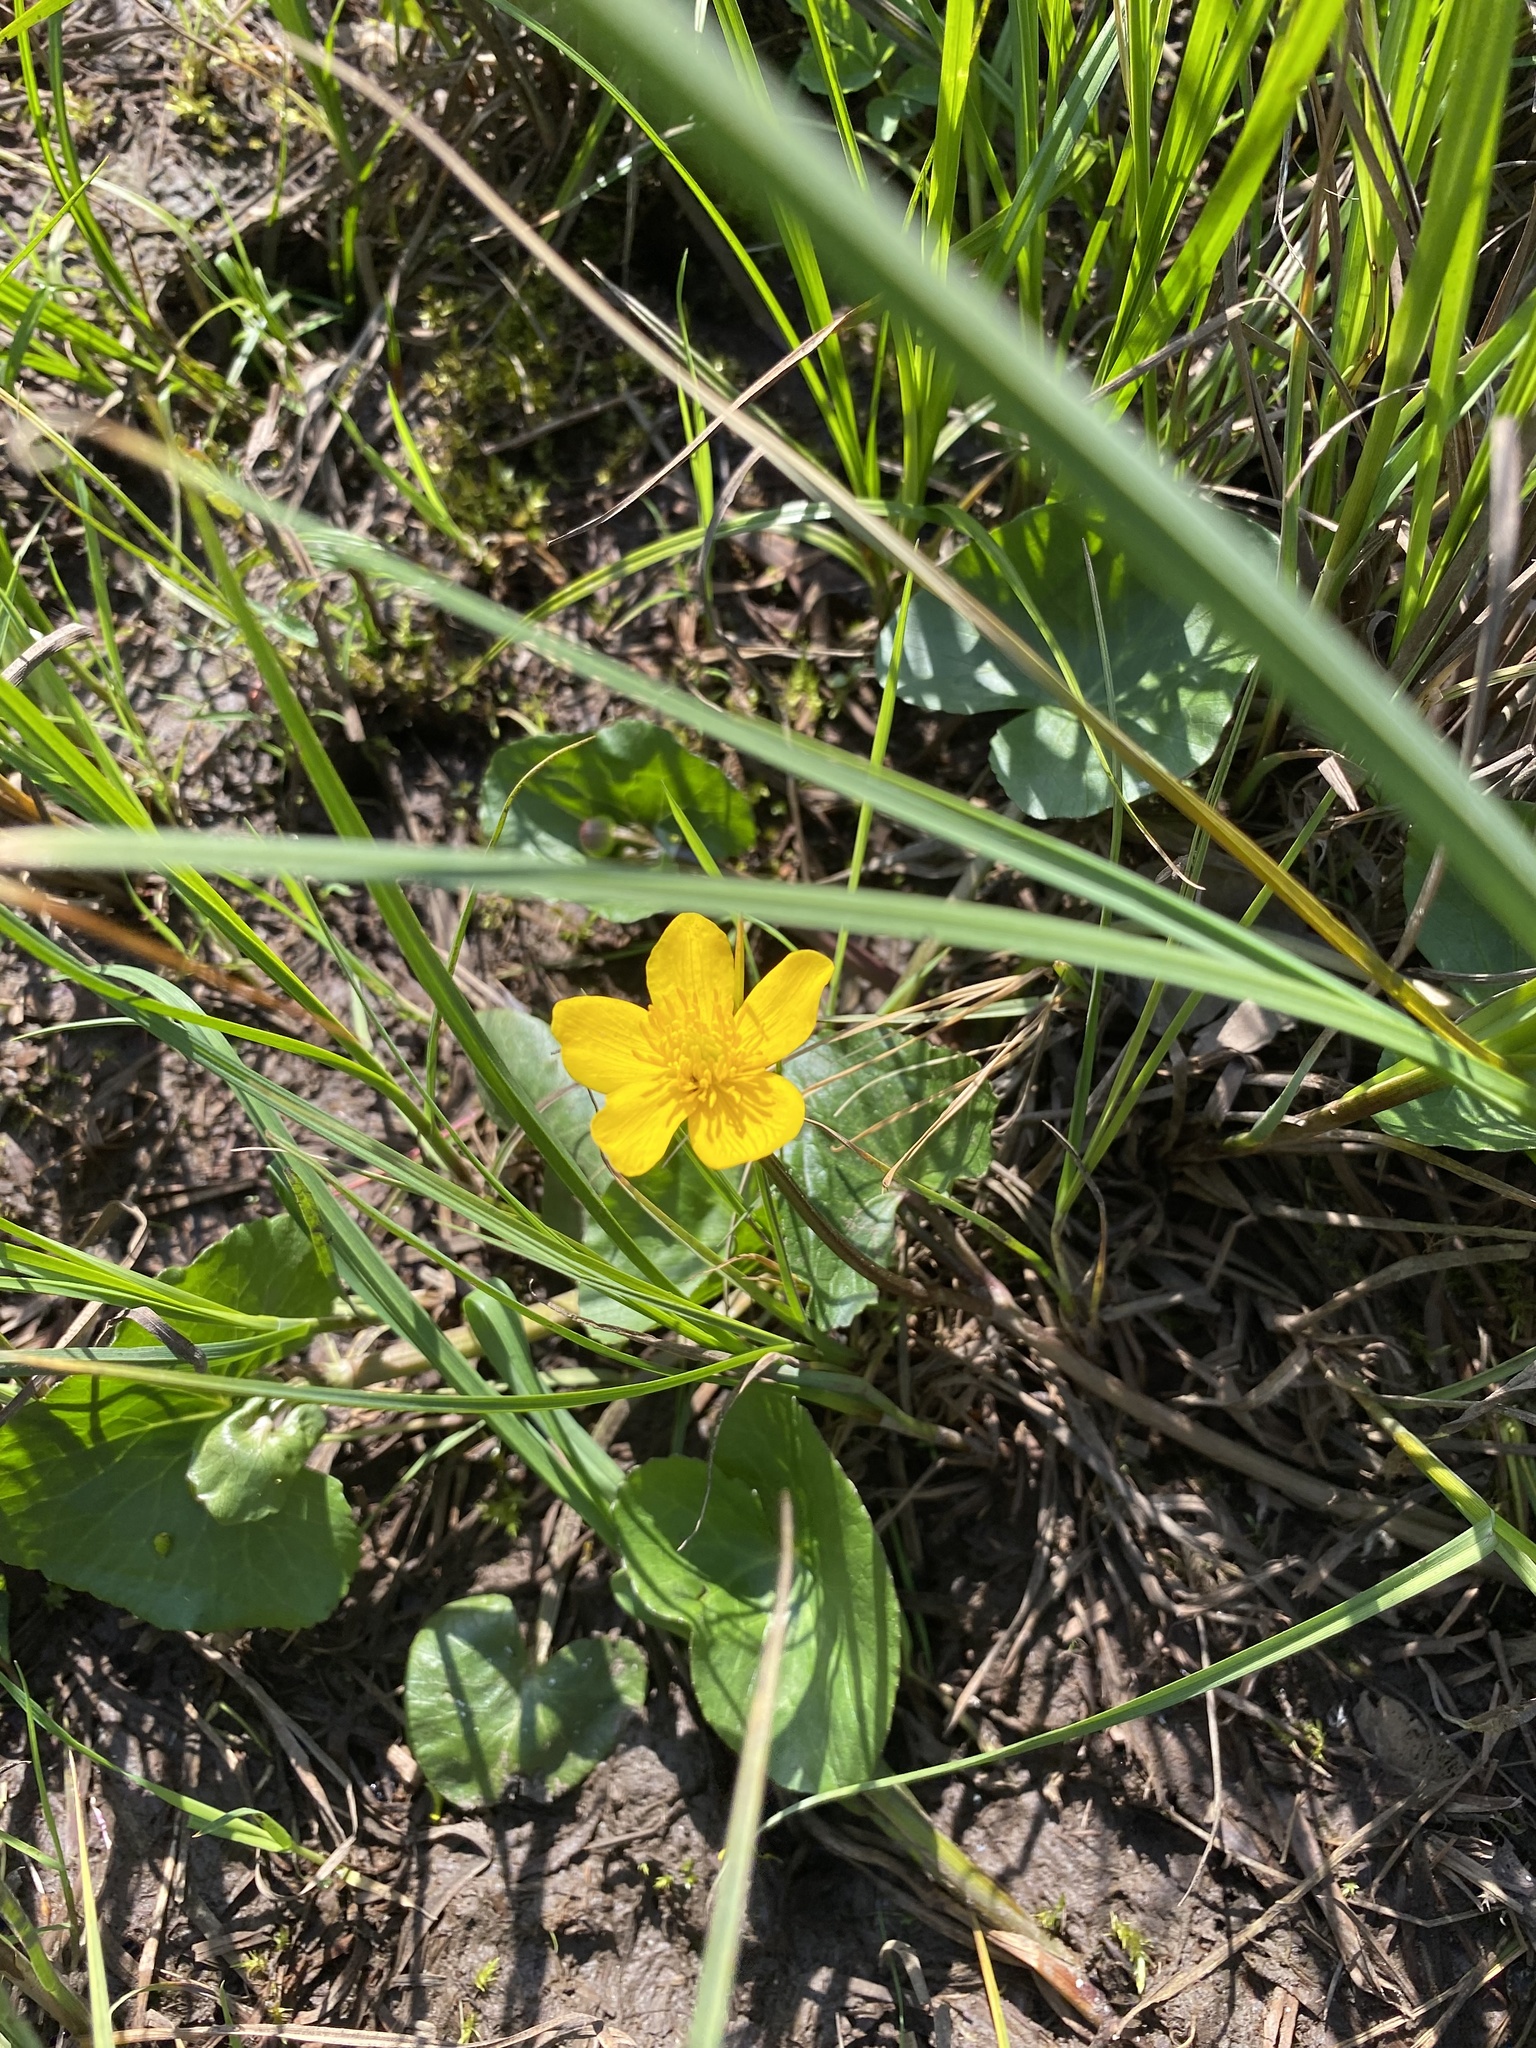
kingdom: Plantae
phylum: Tracheophyta
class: Magnoliopsida
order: Ranunculales
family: Ranunculaceae
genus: Caltha
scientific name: Caltha palustris
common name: Marsh marigold
